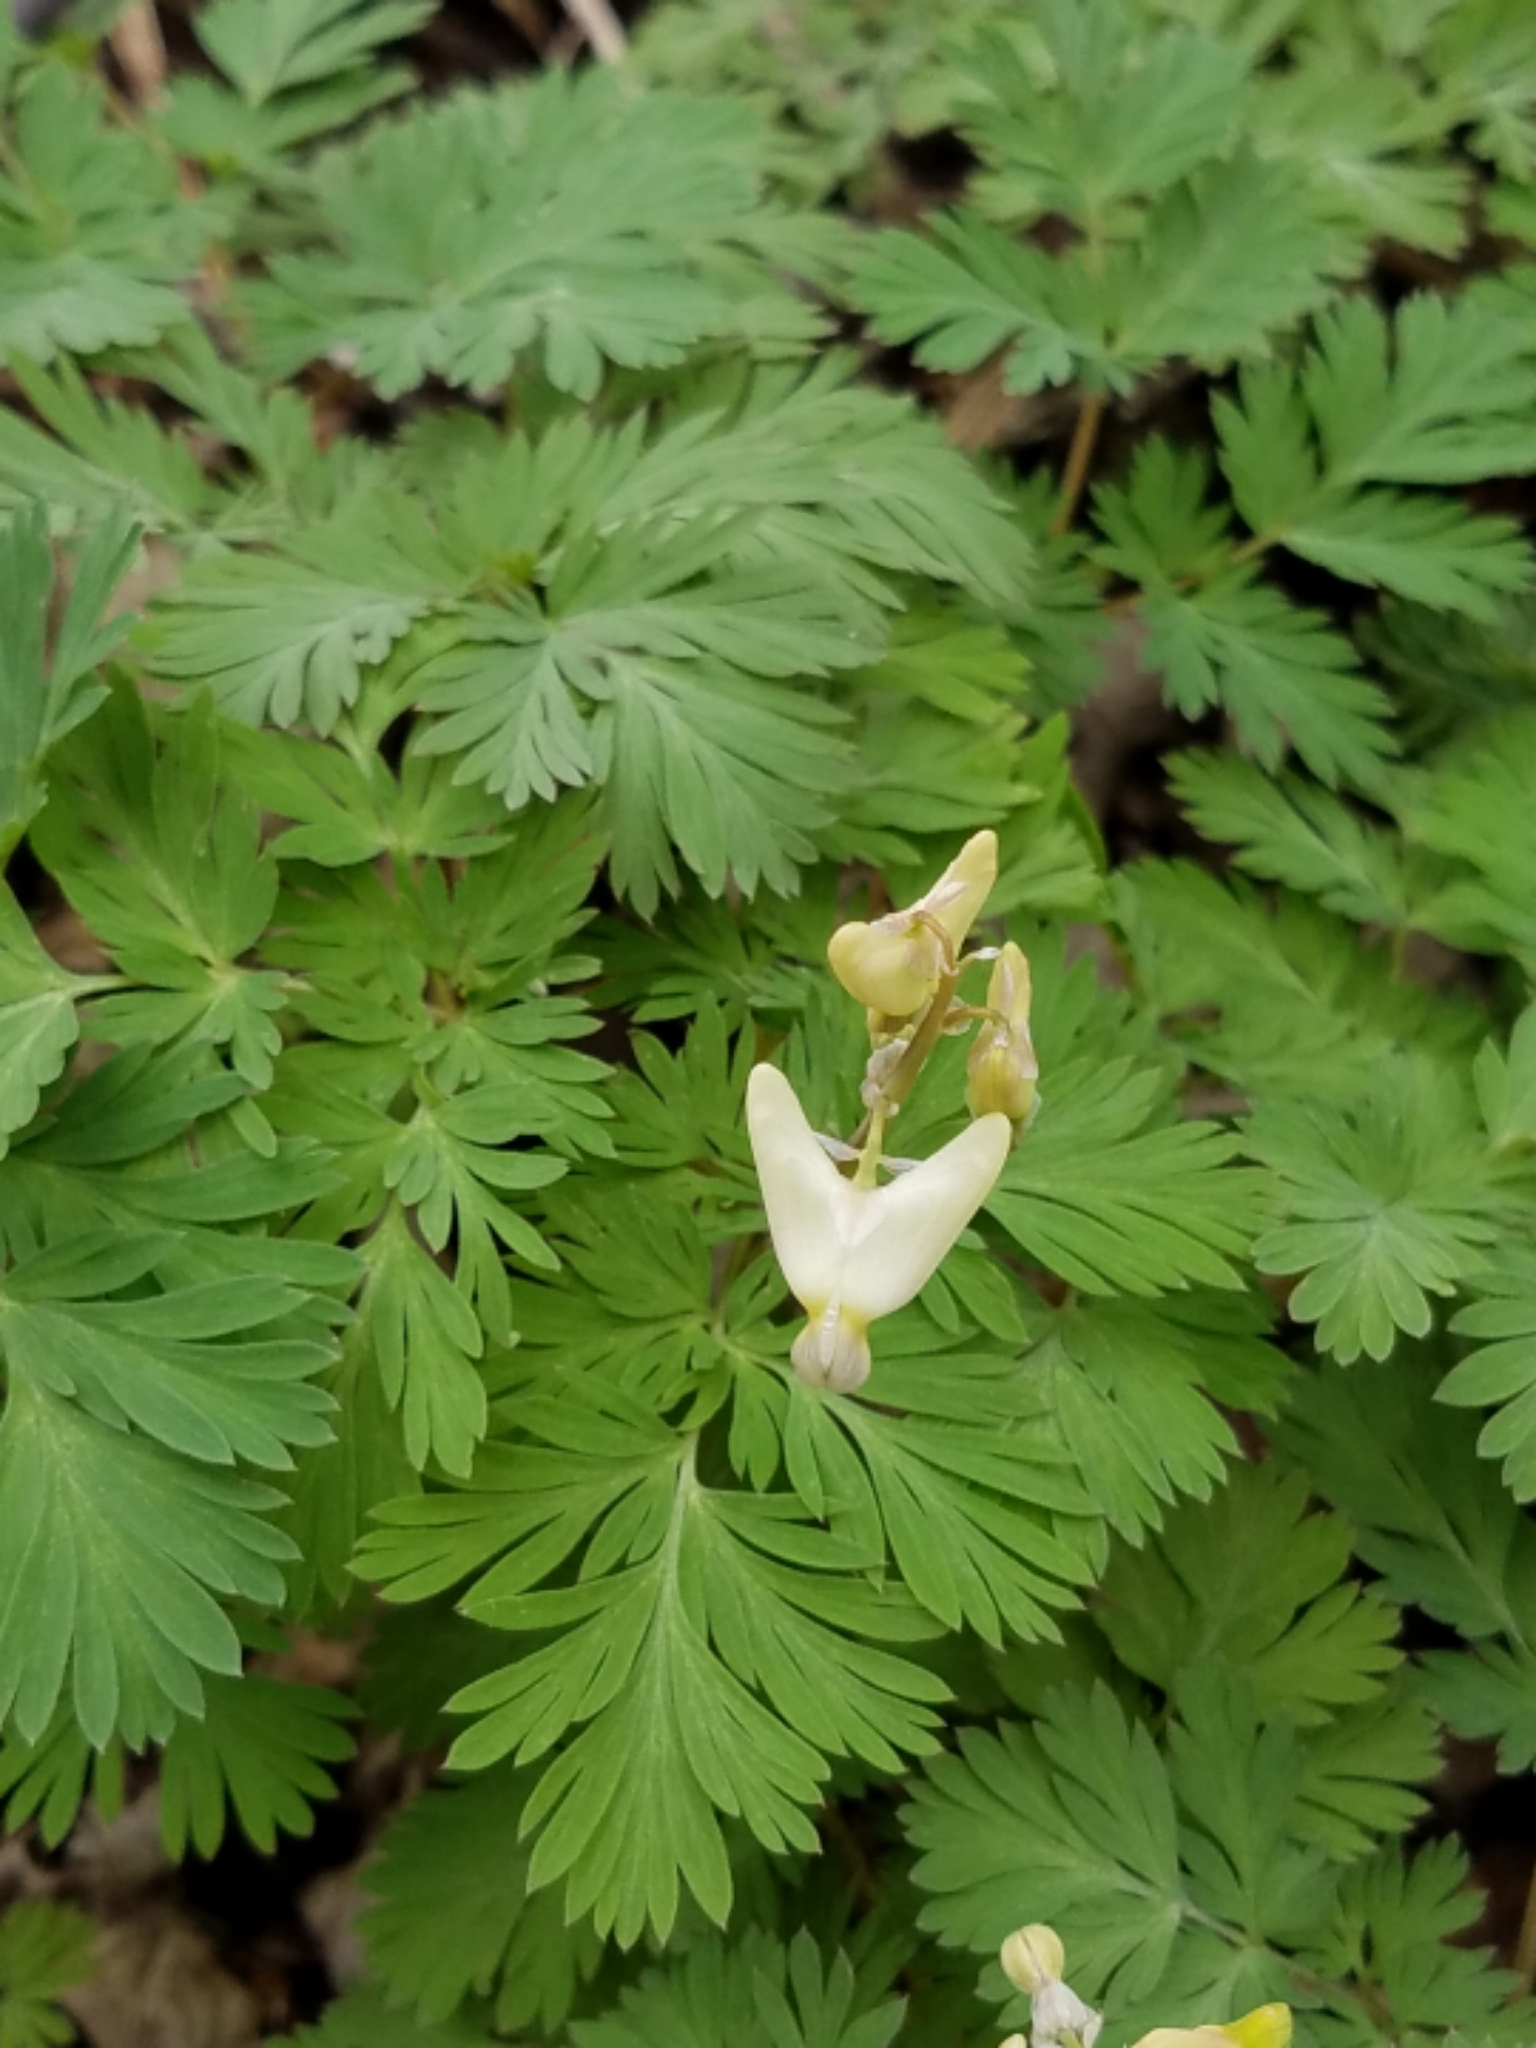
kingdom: Plantae
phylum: Tracheophyta
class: Magnoliopsida
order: Ranunculales
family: Papaveraceae
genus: Dicentra
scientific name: Dicentra cucullaria
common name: Dutchman's breeches
